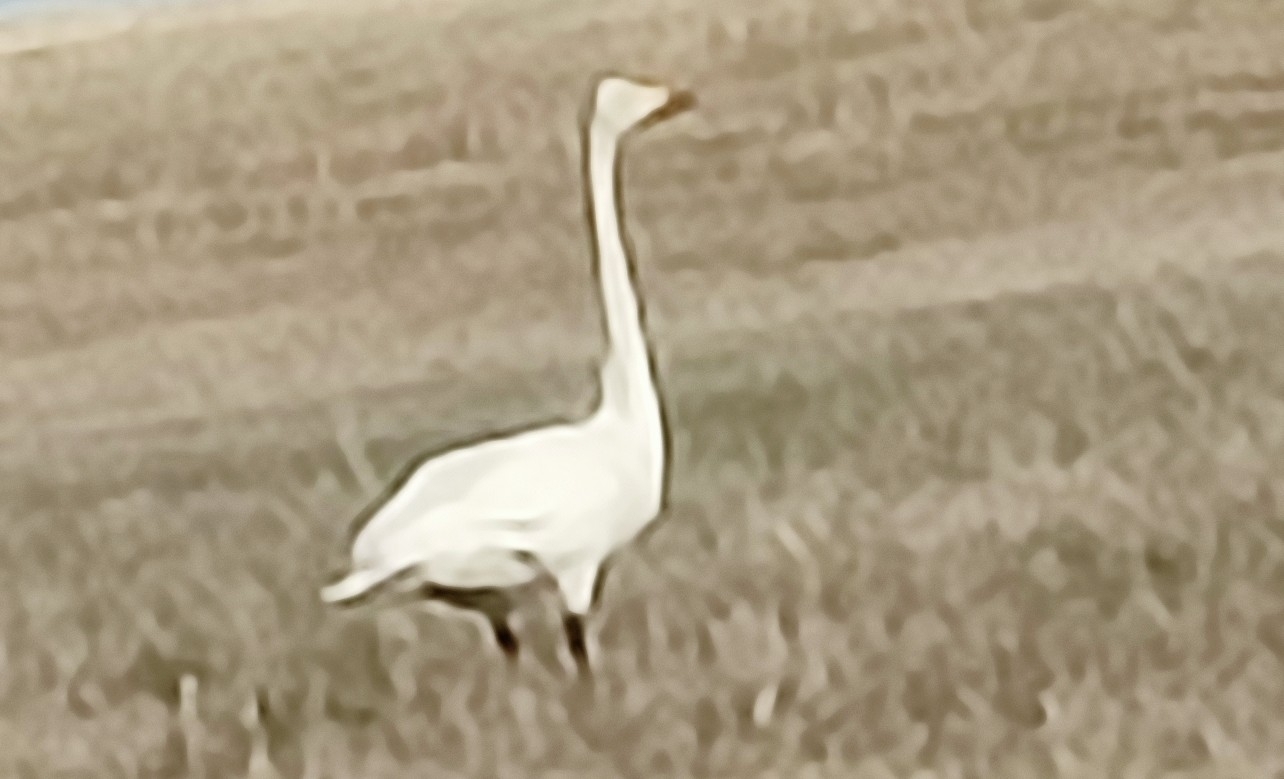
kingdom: Animalia
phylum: Chordata
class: Aves
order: Anseriformes
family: Anatidae
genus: Cygnus
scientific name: Cygnus cygnus
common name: Whooper swan
